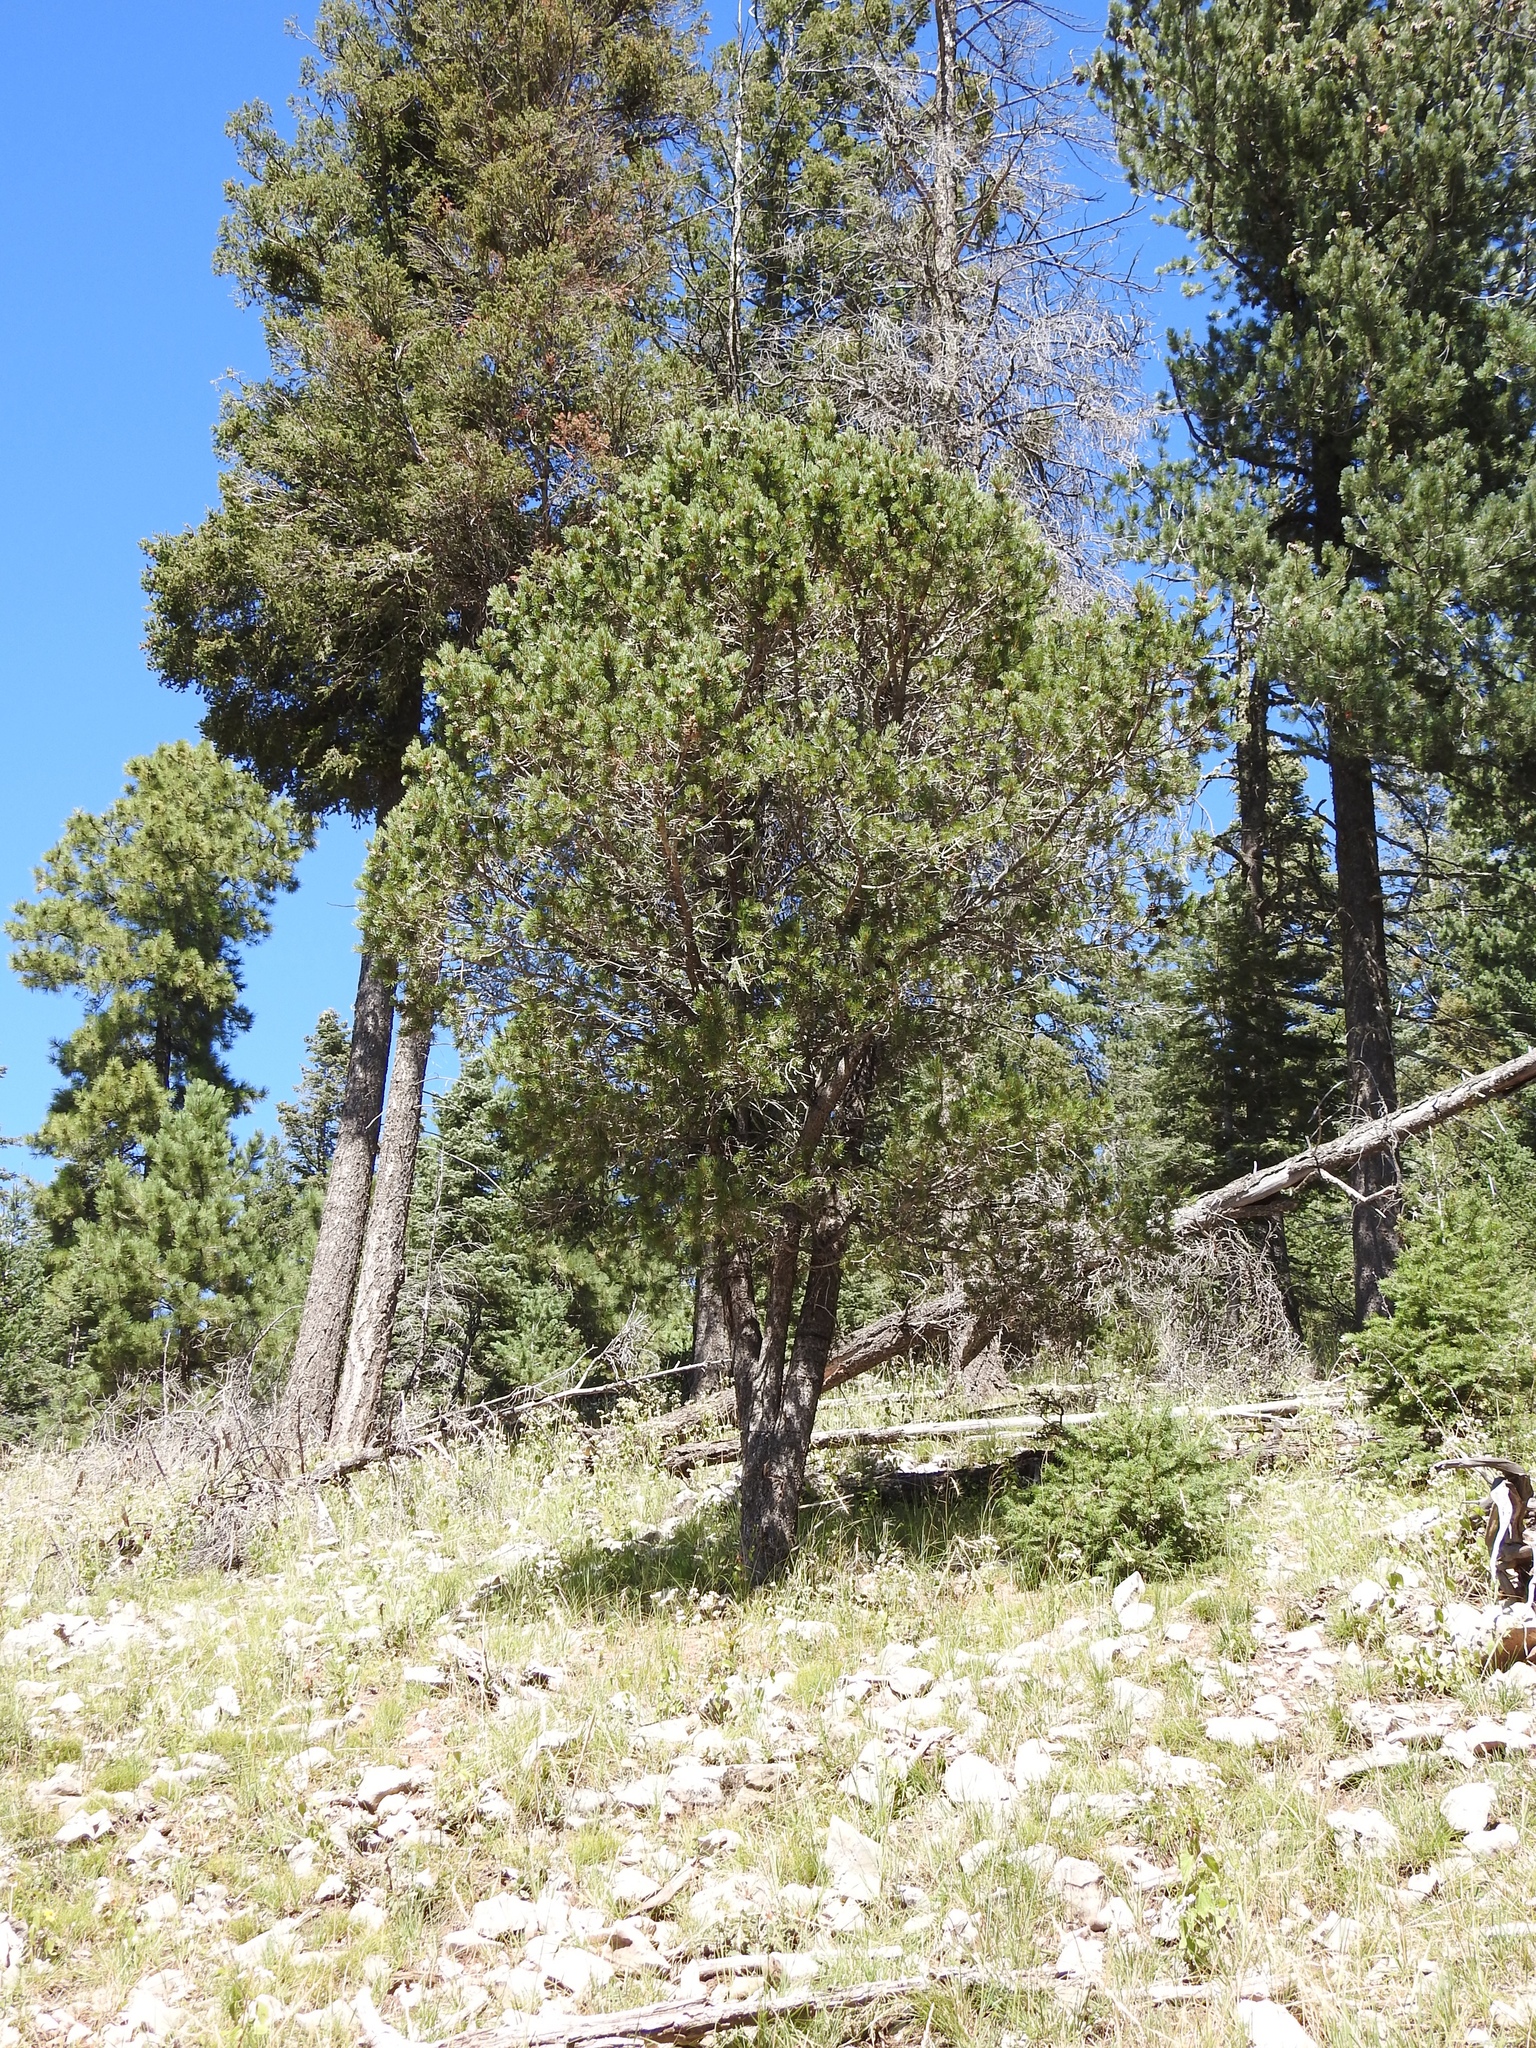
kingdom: Plantae
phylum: Tracheophyta
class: Pinopsida
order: Pinales
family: Pinaceae
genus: Pinus
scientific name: Pinus edulis
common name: Colorado pinyon
